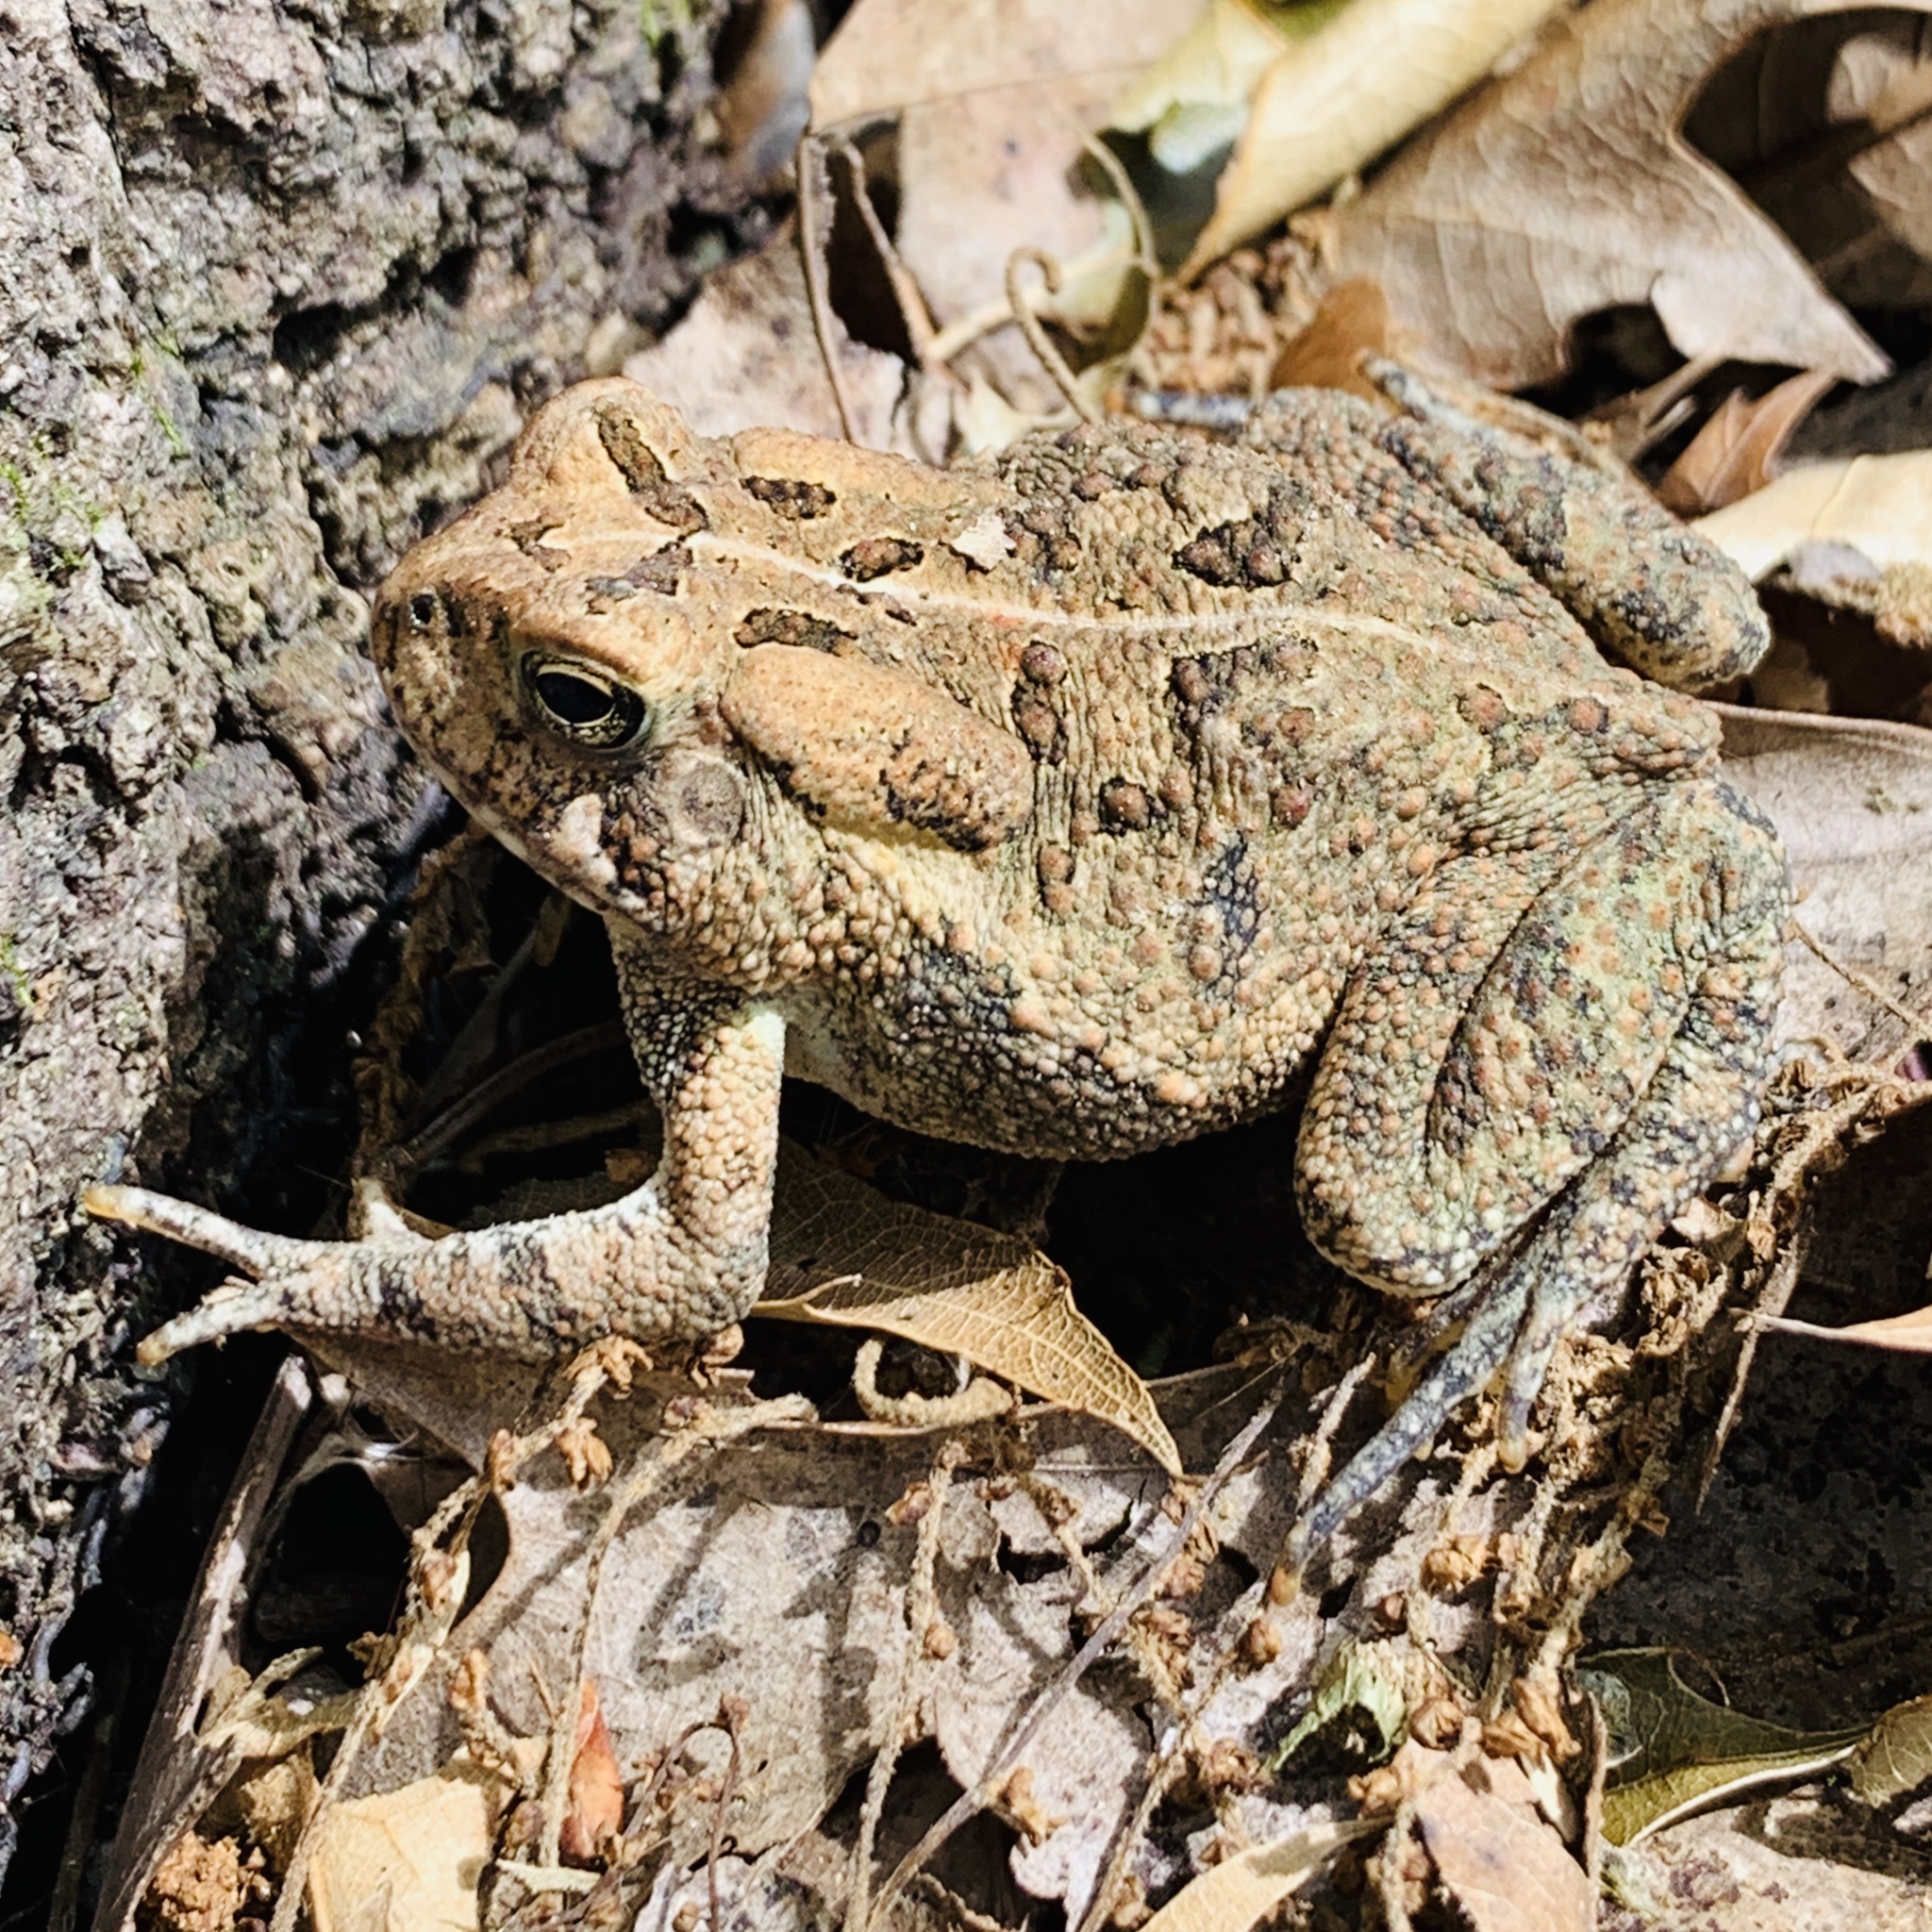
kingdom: Animalia
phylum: Chordata
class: Amphibia
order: Anura
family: Bufonidae
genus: Anaxyrus
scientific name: Anaxyrus fowleri
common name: Fowler's toad
